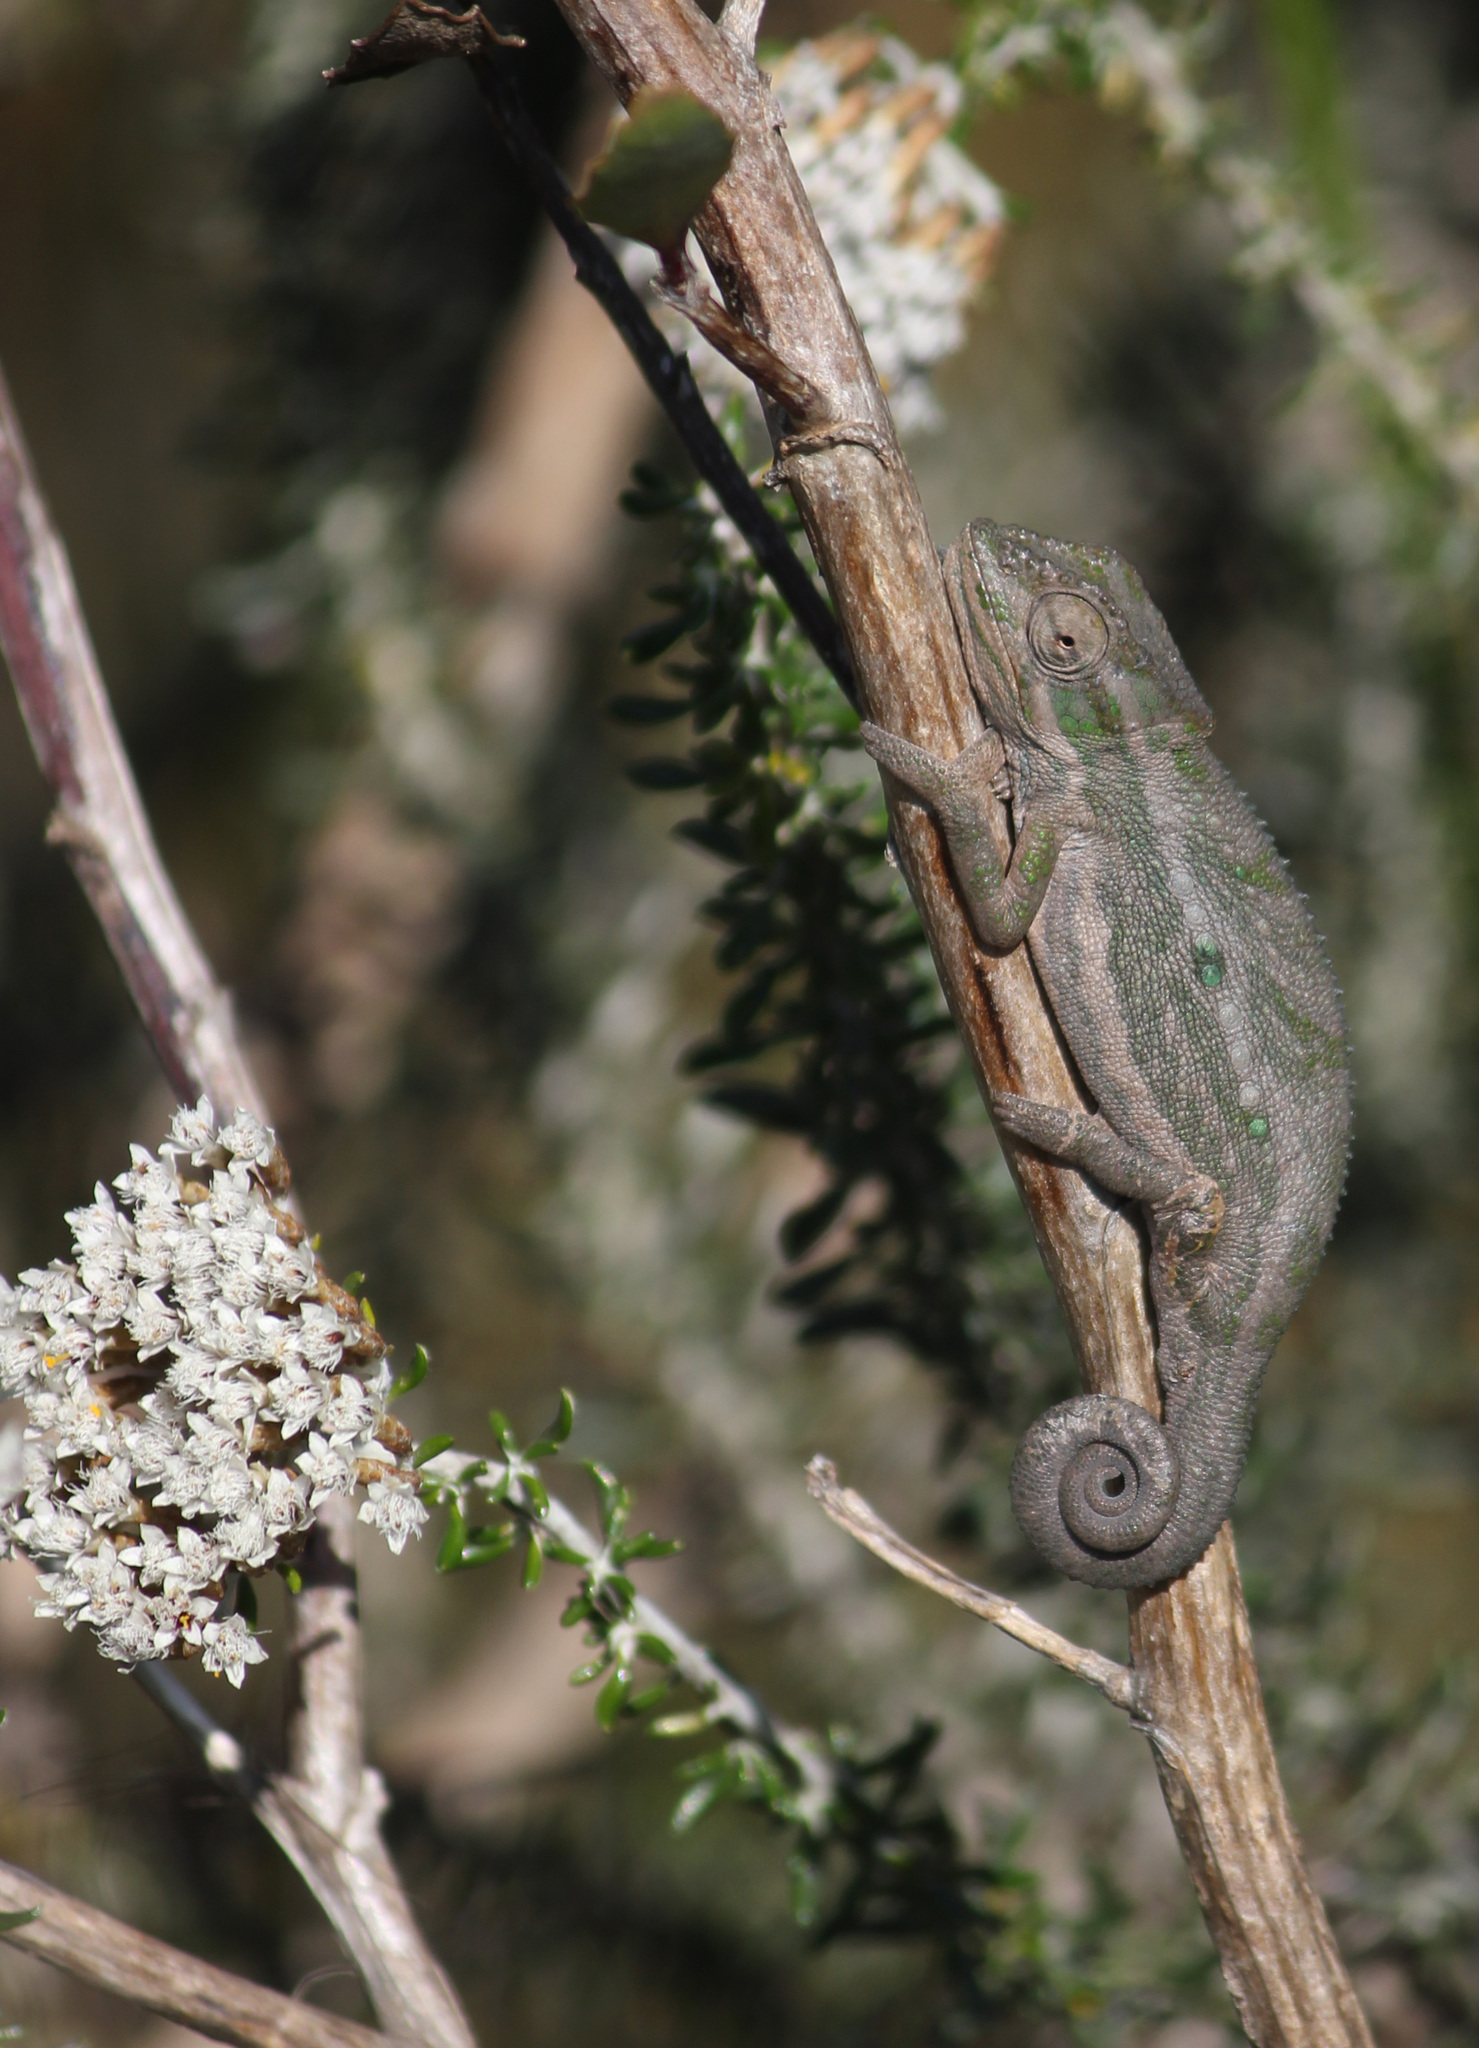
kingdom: Animalia
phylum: Chordata
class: Squamata
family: Chamaeleonidae
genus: Bradypodion
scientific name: Bradypodion pumilum
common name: Cape dwarf chameleon
